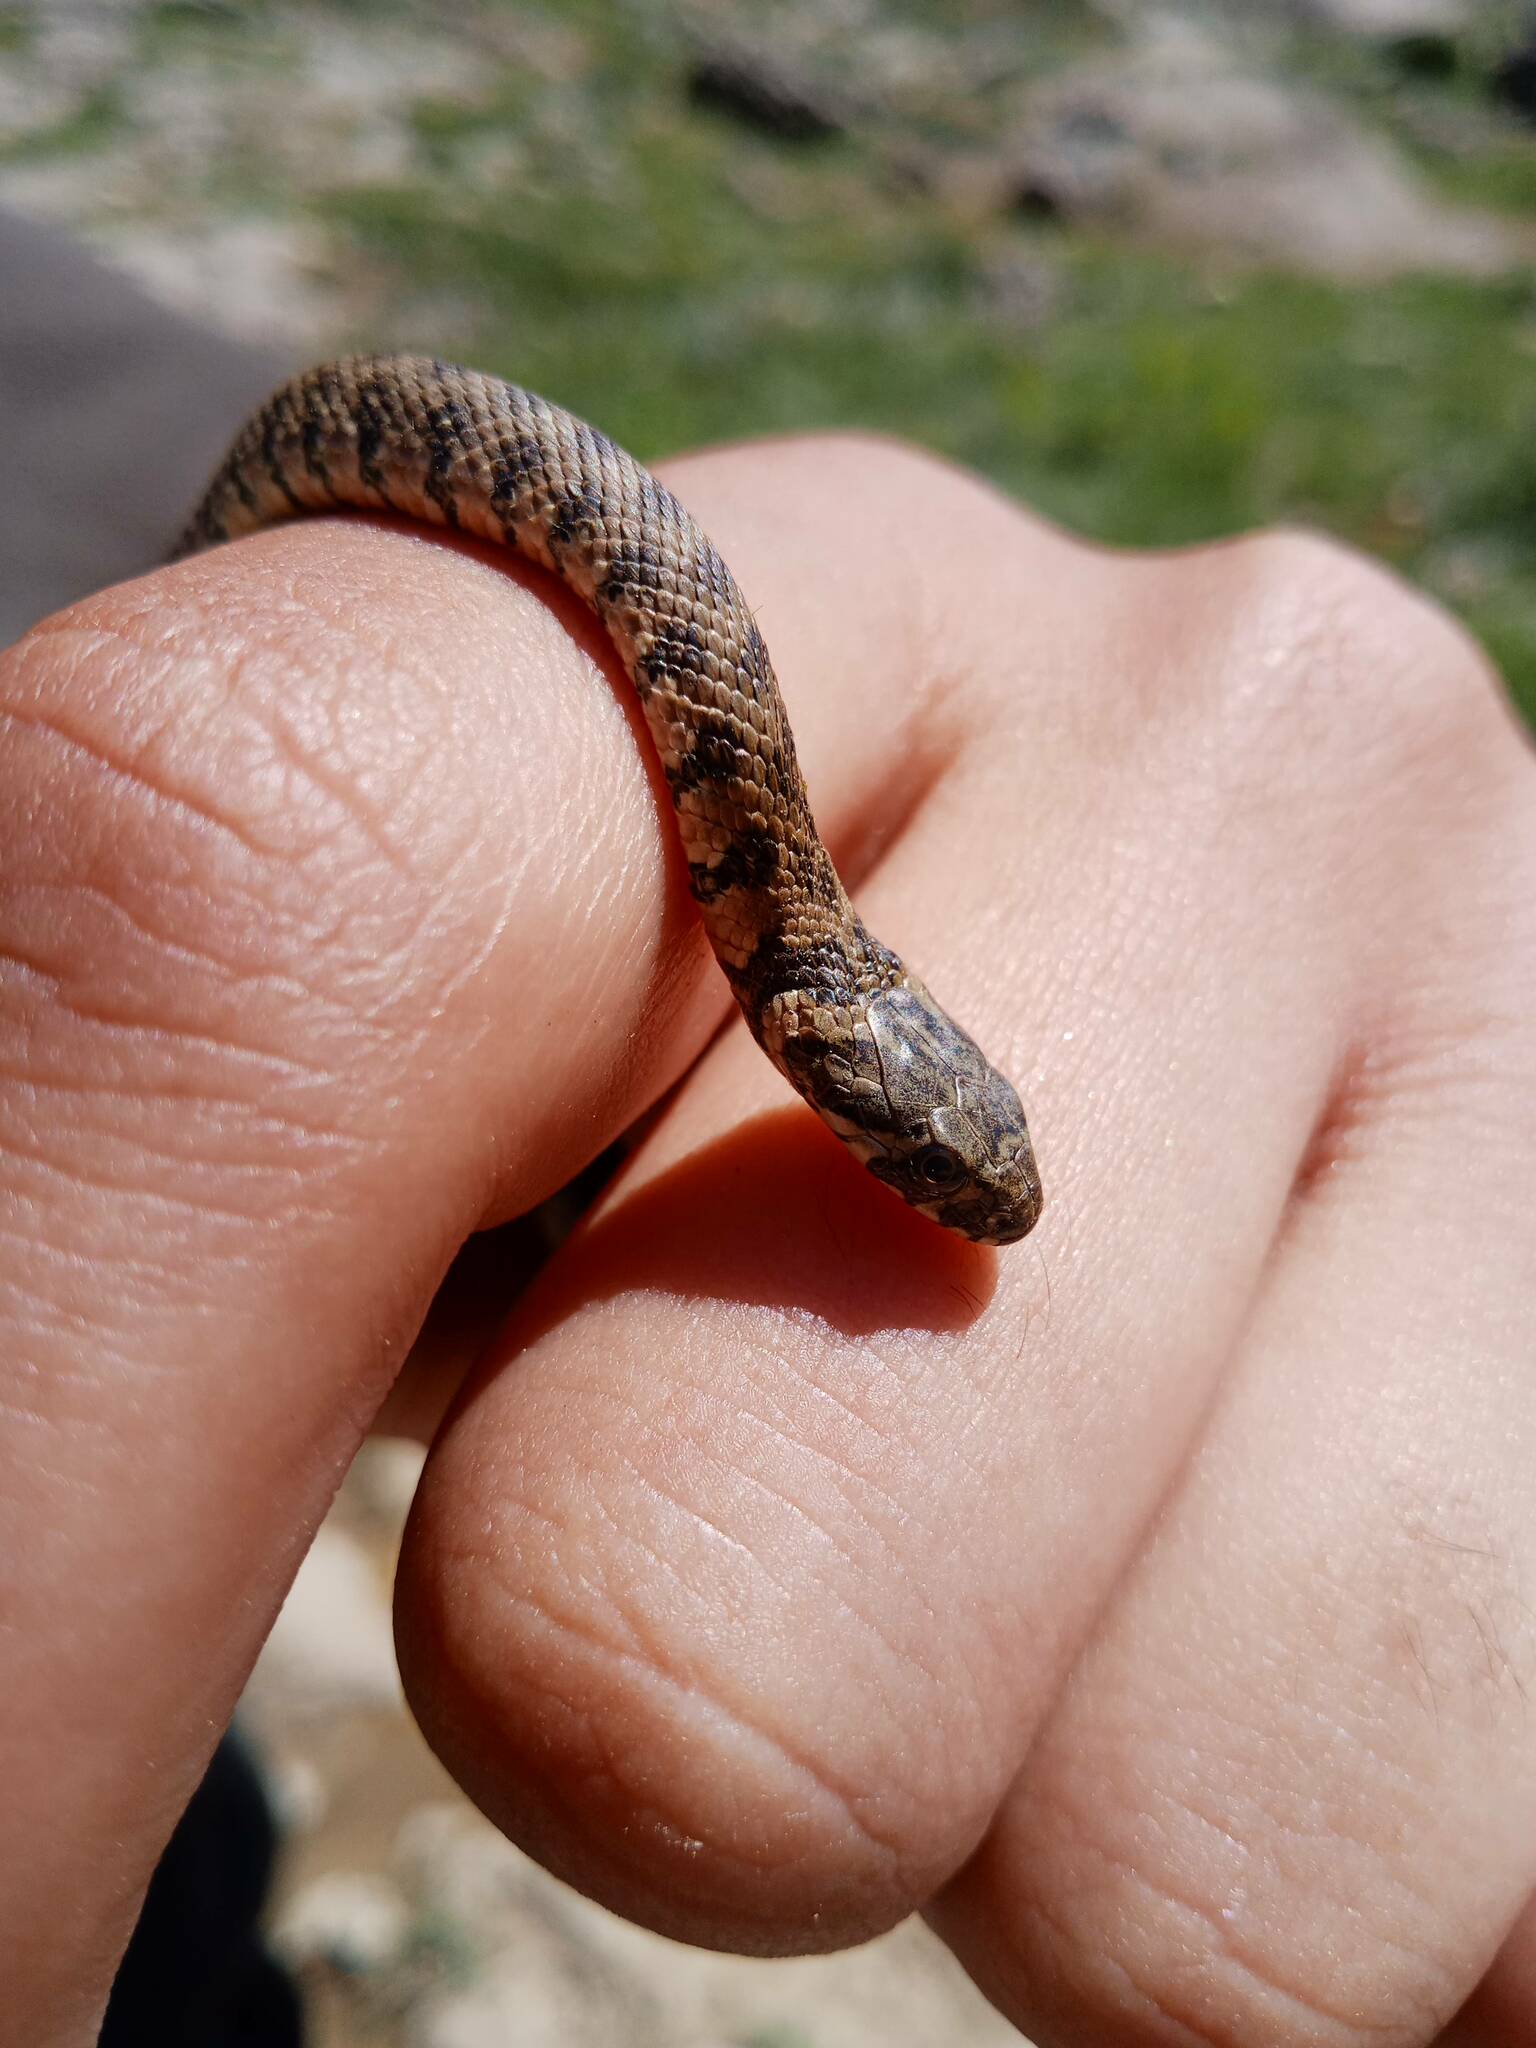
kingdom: Animalia
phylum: Chordata
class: Squamata
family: Colubridae
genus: Natrix
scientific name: Natrix maura
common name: Viperine water snake
